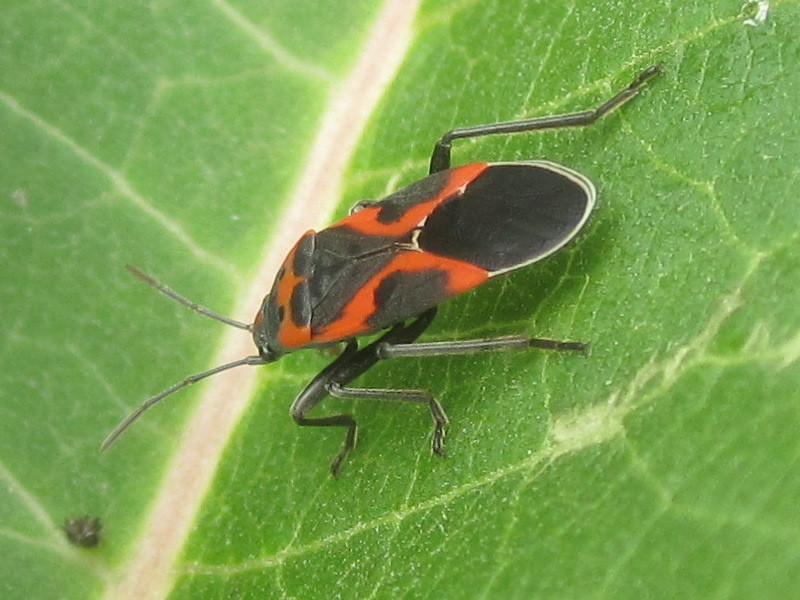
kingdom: Animalia
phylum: Arthropoda
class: Insecta
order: Hemiptera
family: Lygaeidae
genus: Lygaeus
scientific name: Lygaeus kalmii
